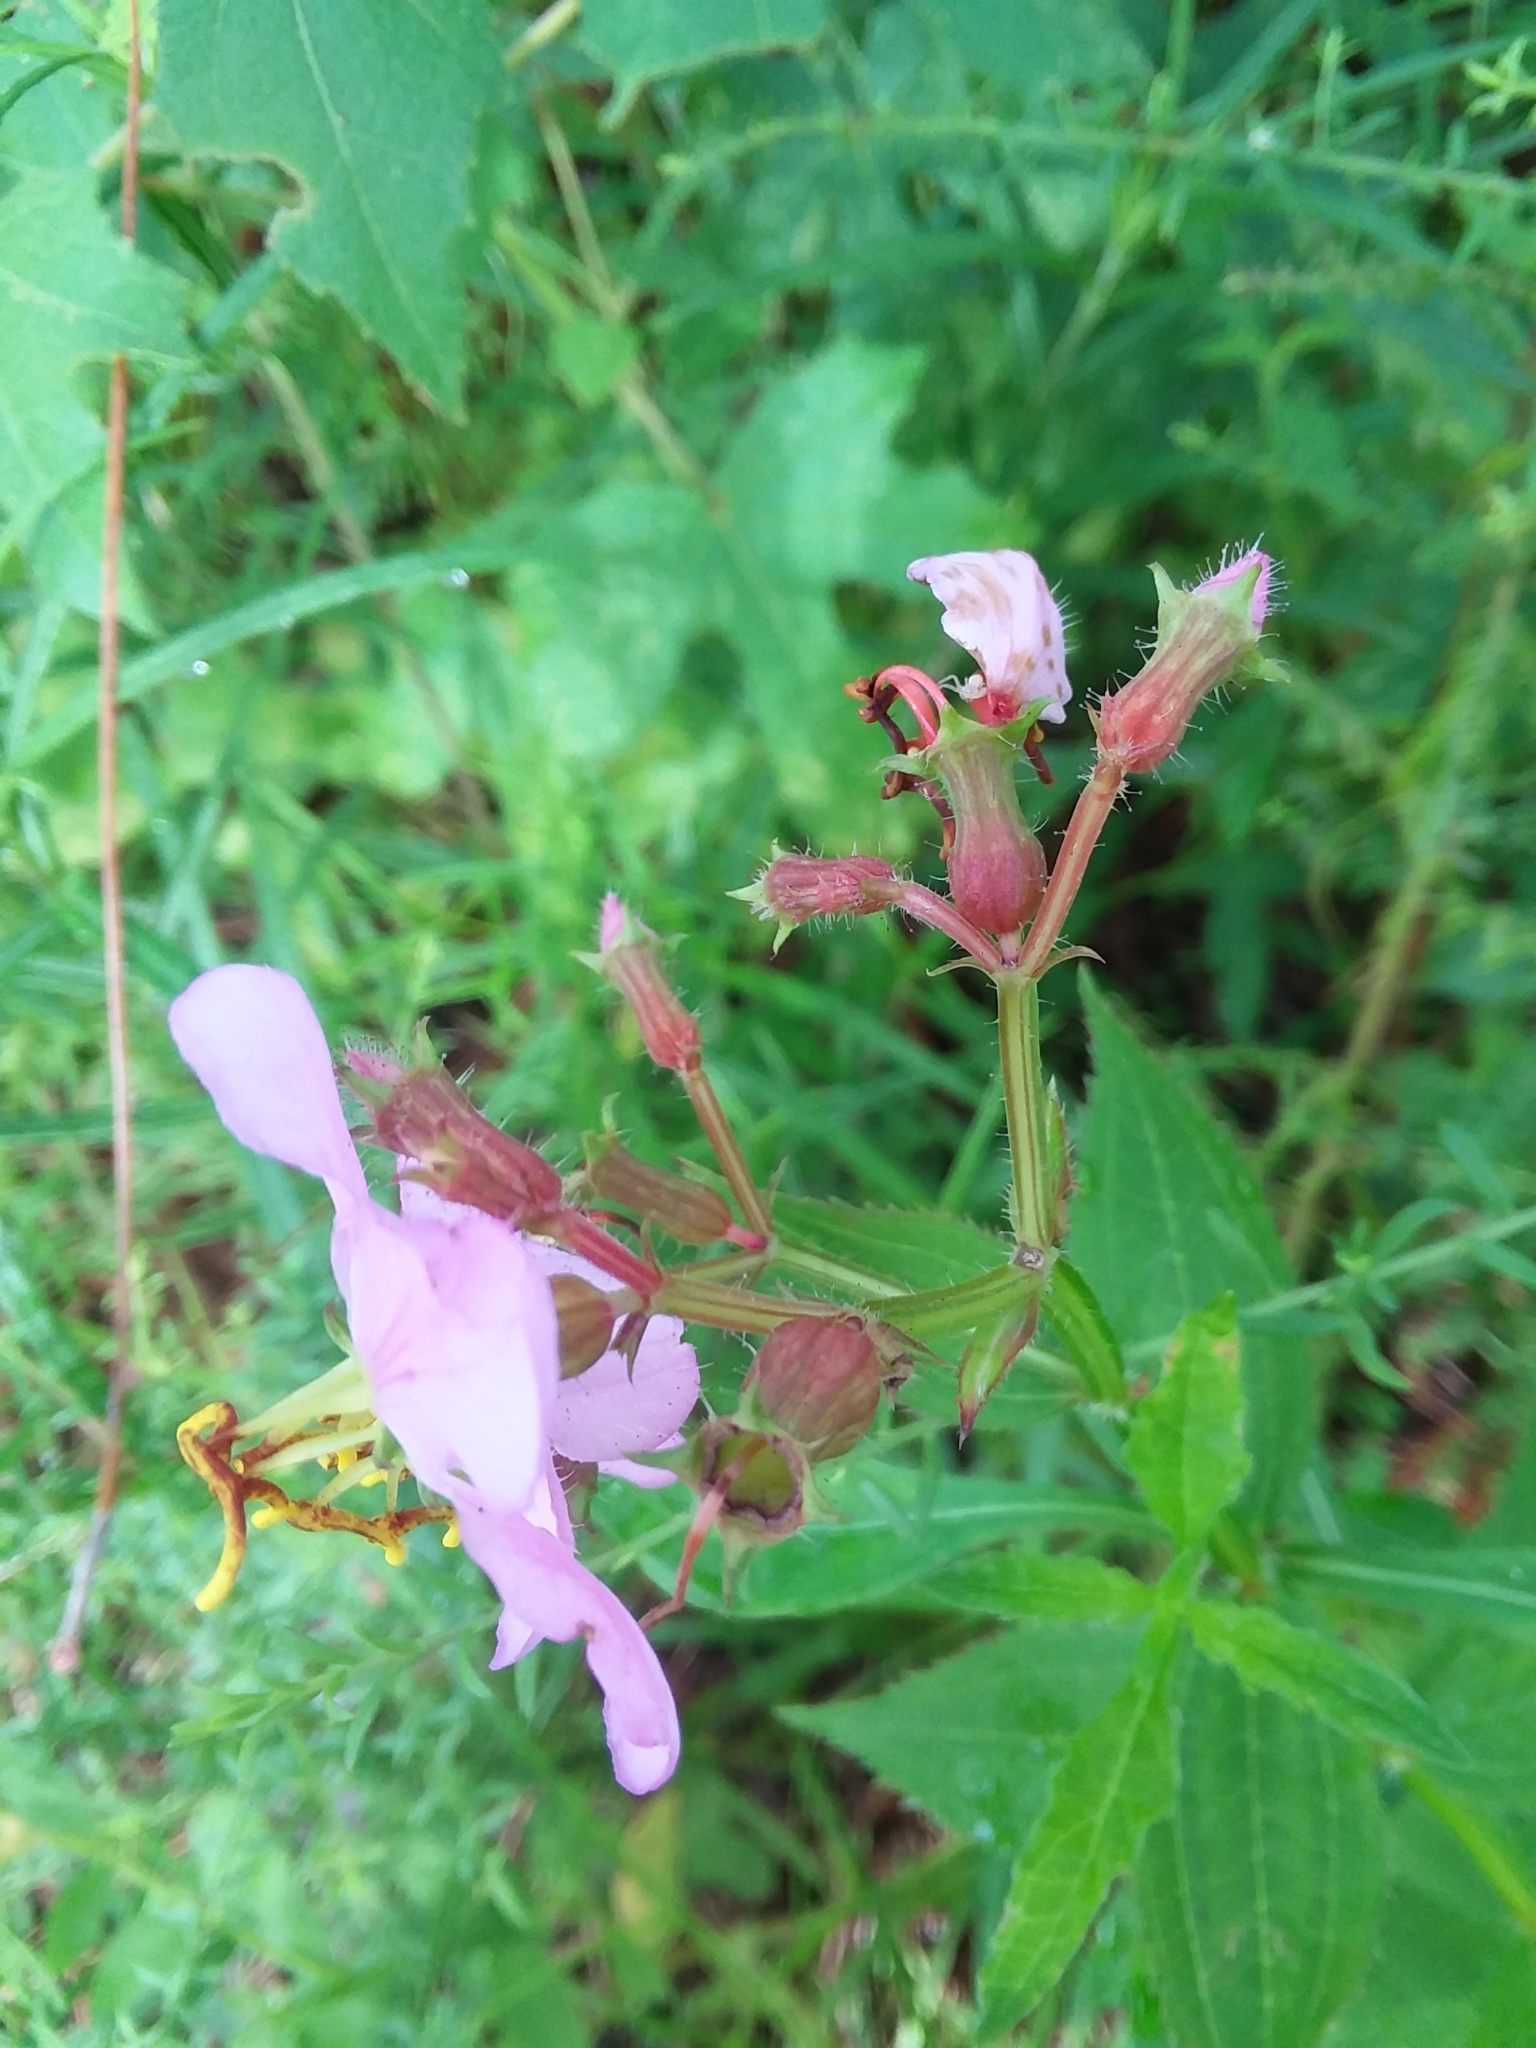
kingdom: Plantae
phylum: Tracheophyta
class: Magnoliopsida
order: Myrtales
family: Melastomataceae
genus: Rhexia
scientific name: Rhexia virginica
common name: Common meadow beauty
